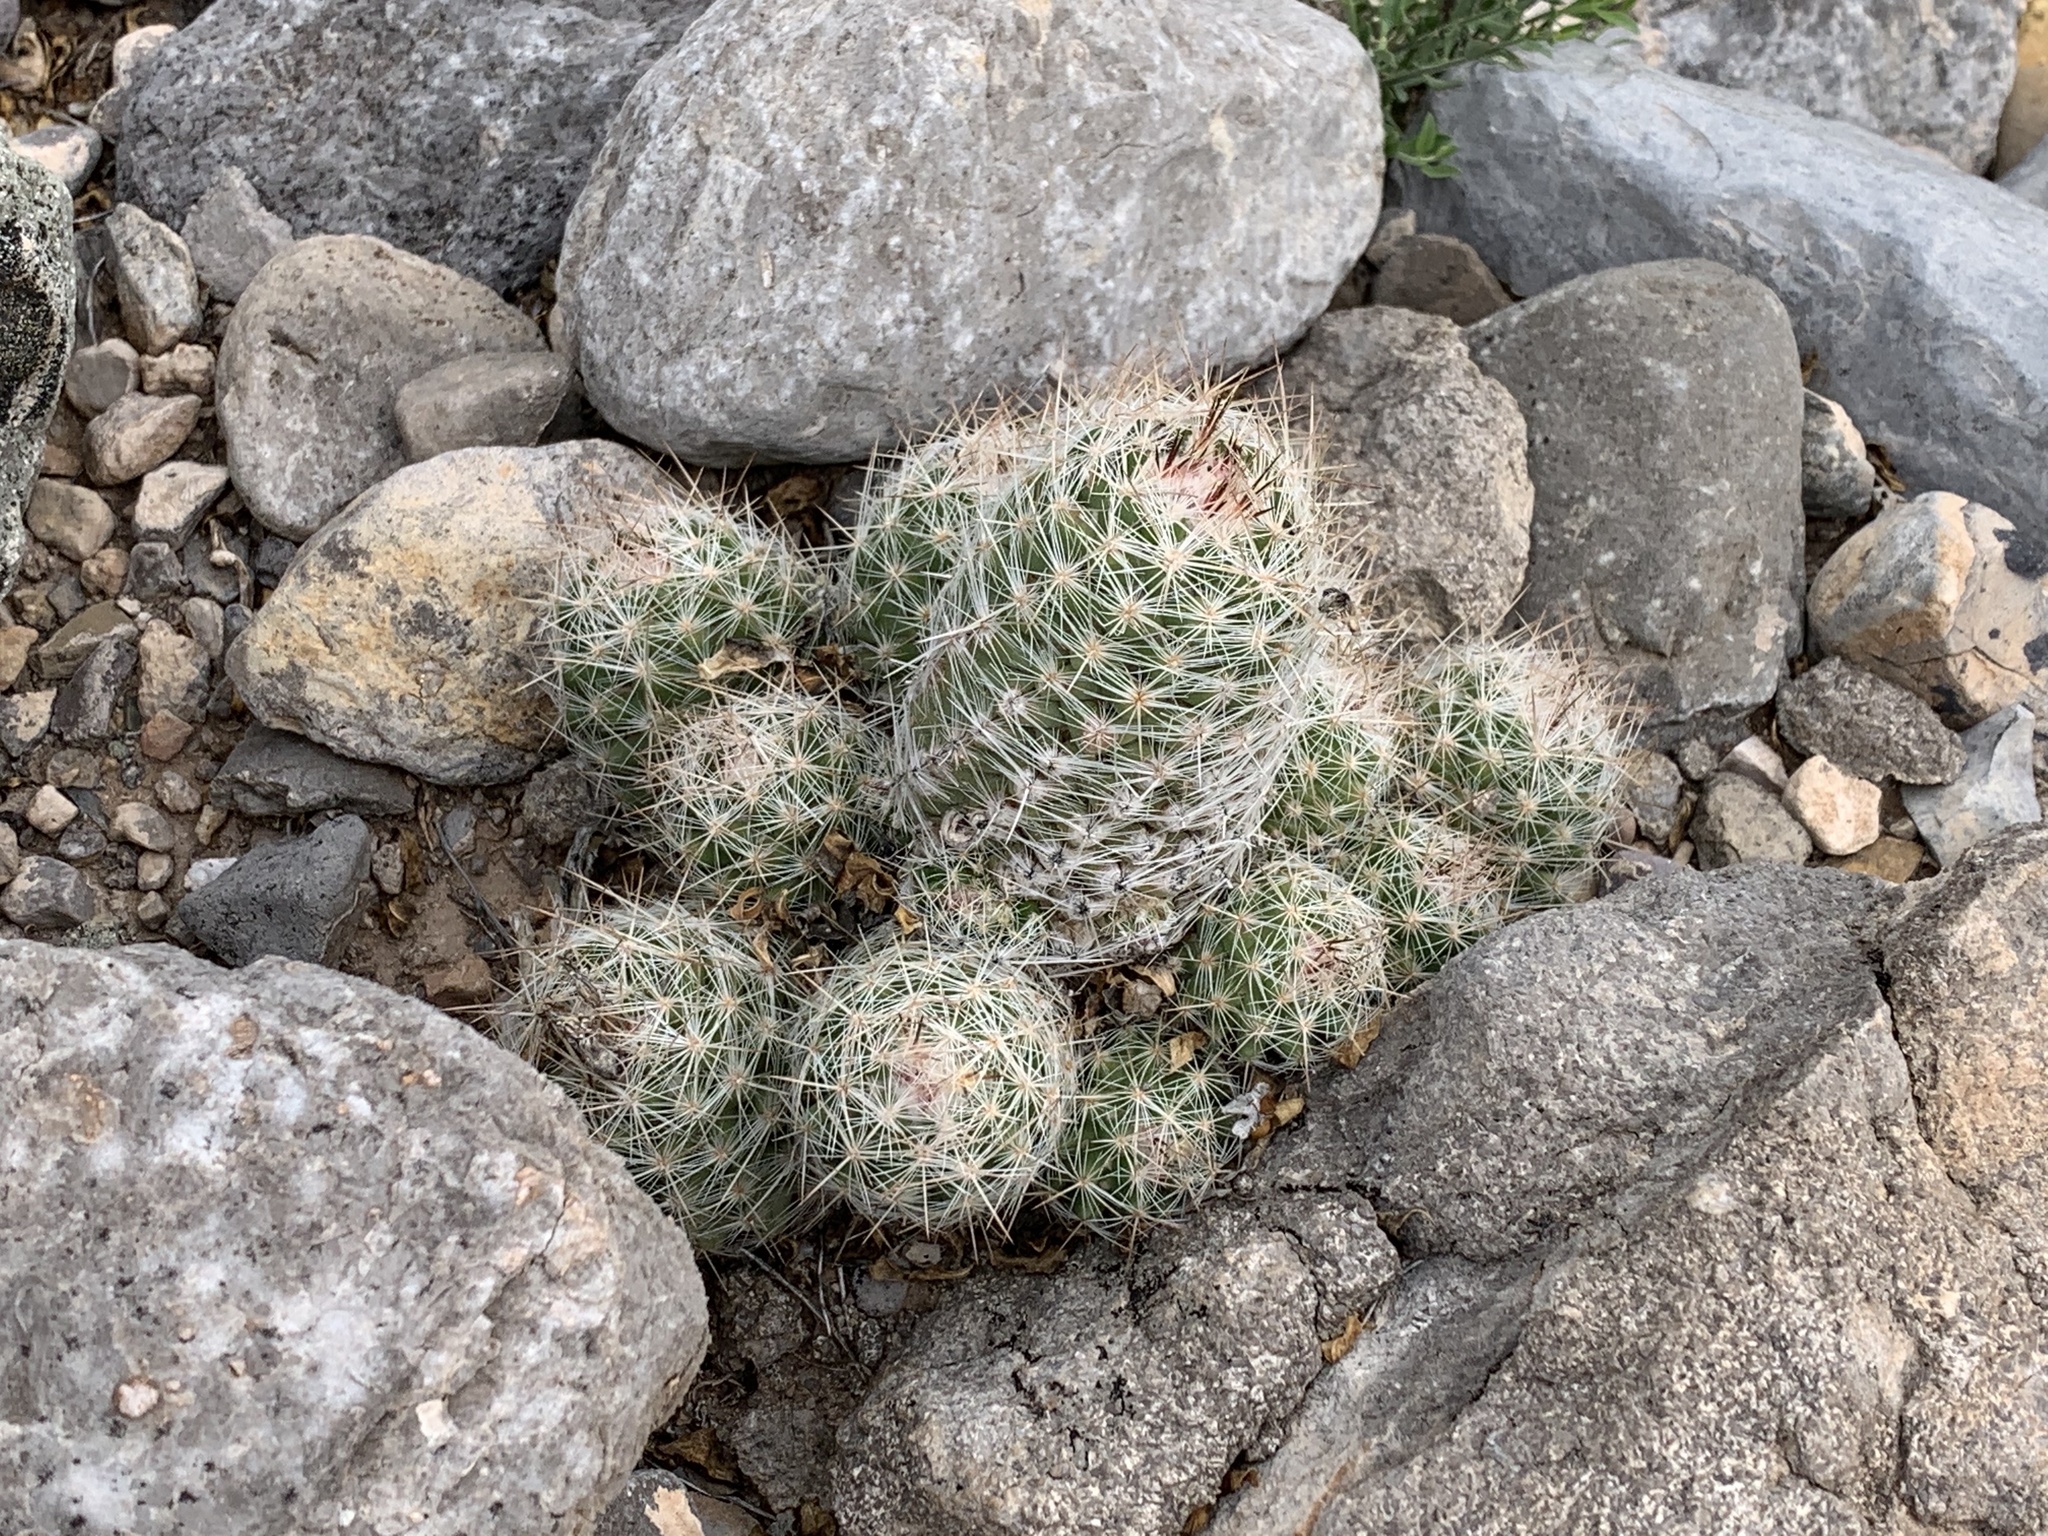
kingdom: Plantae
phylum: Tracheophyta
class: Magnoliopsida
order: Caryophyllales
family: Cactaceae
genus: Pelecyphora
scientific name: Pelecyphora tuberculosa
